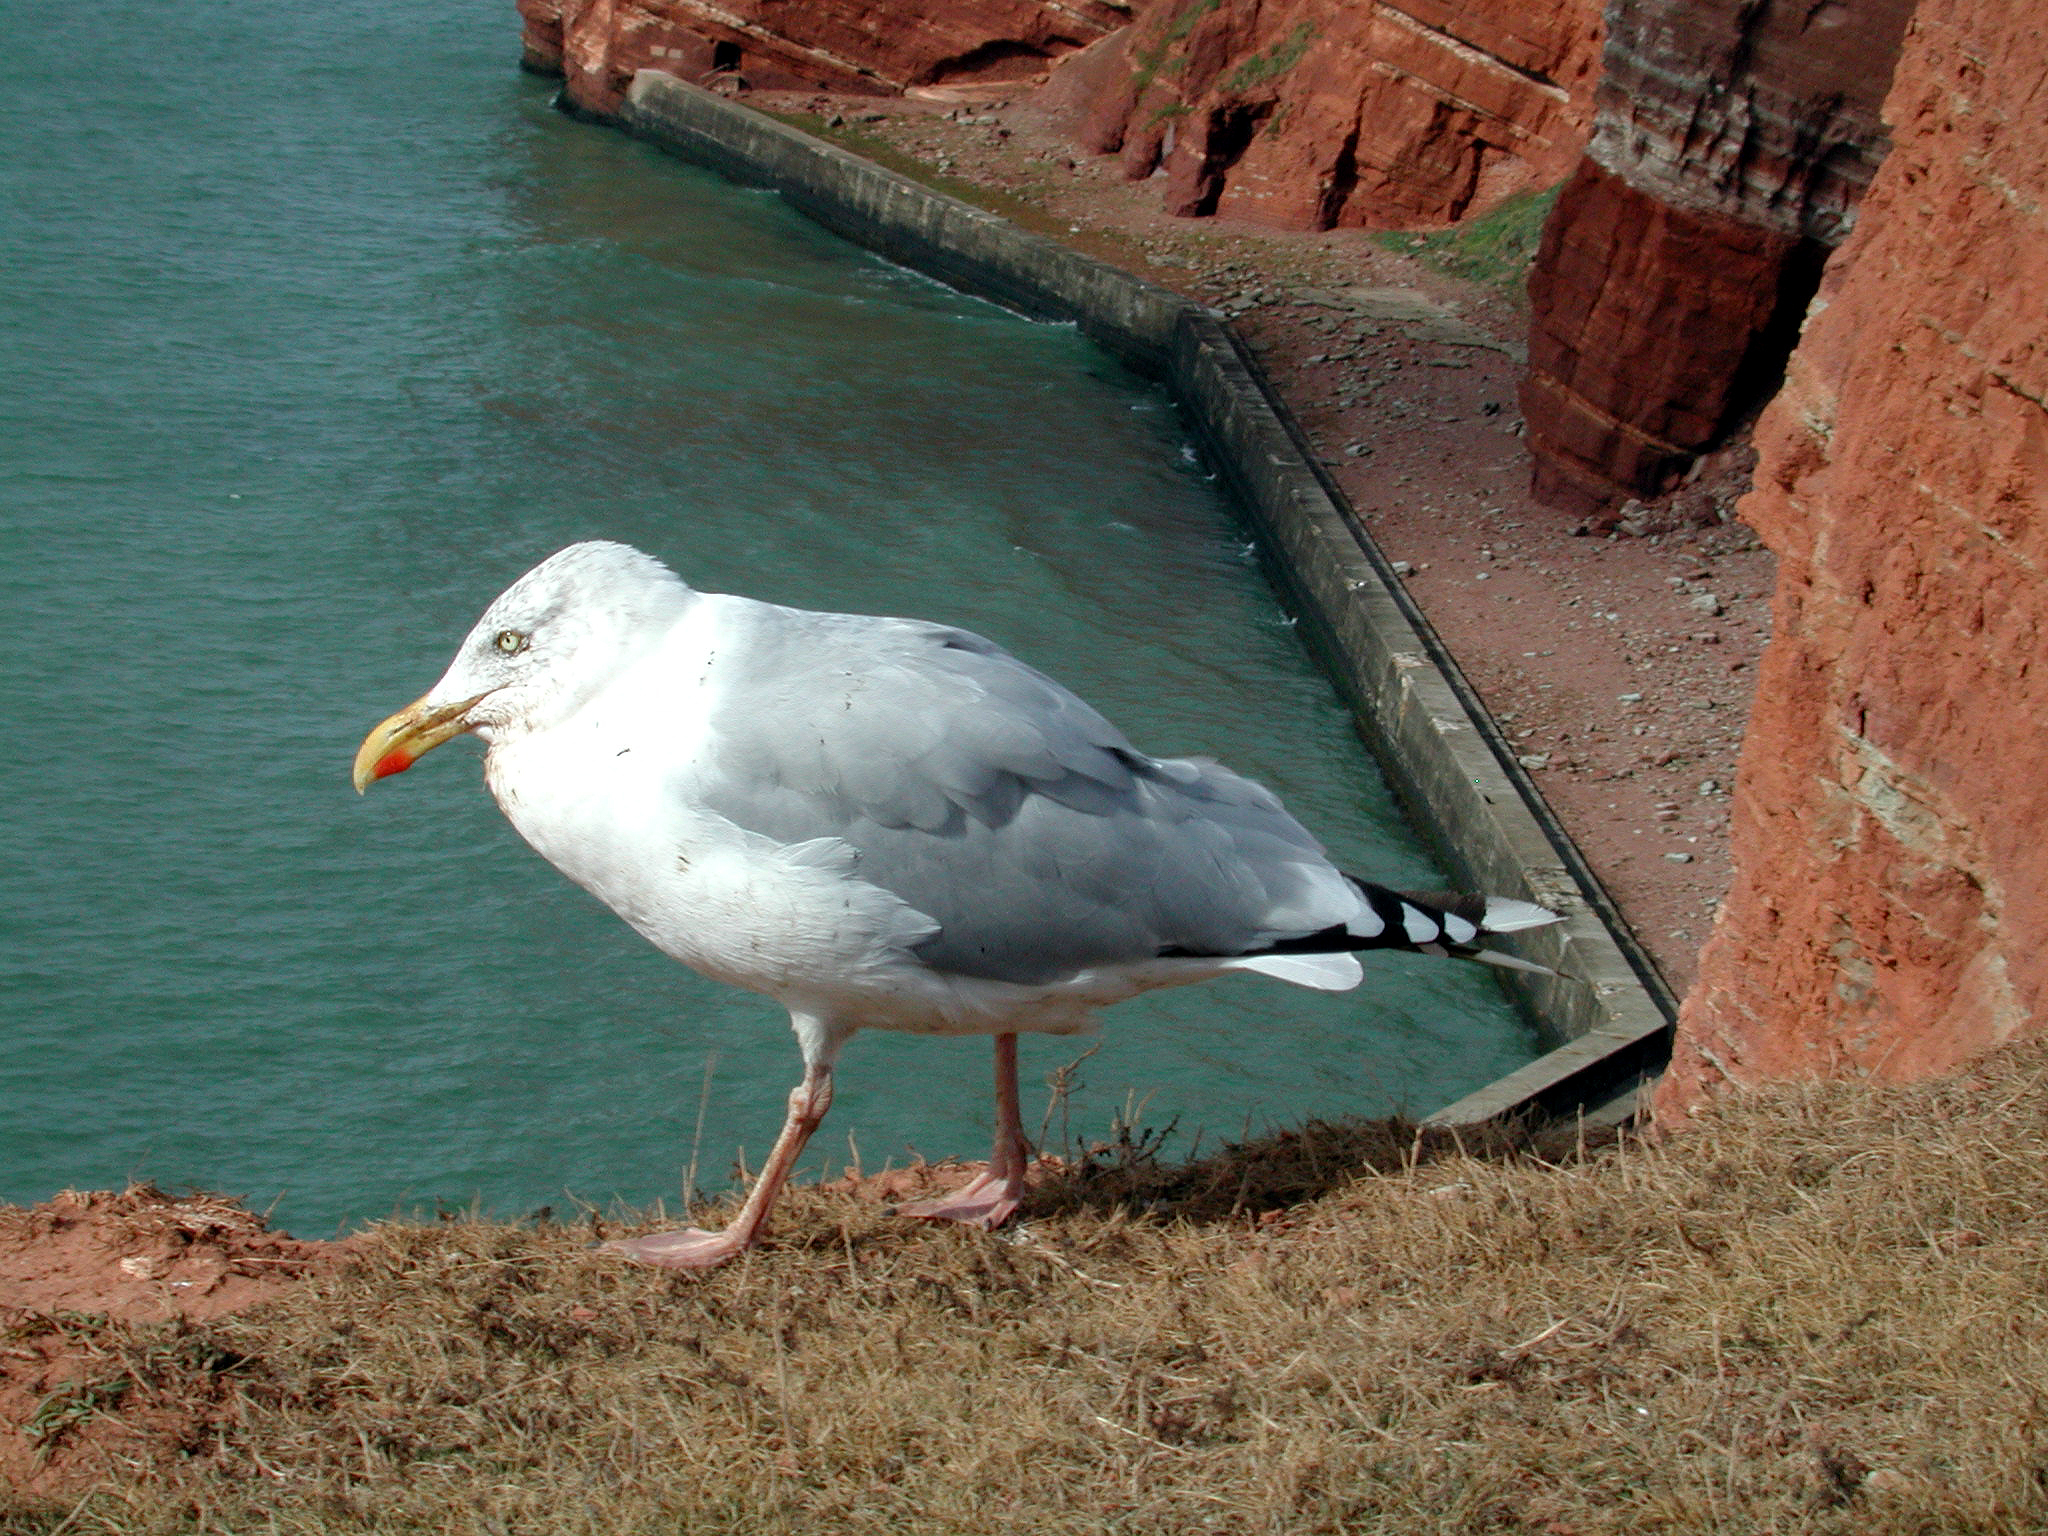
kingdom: Animalia
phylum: Chordata
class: Aves
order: Charadriiformes
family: Laridae
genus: Larus
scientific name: Larus argentatus
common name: Herring gull
